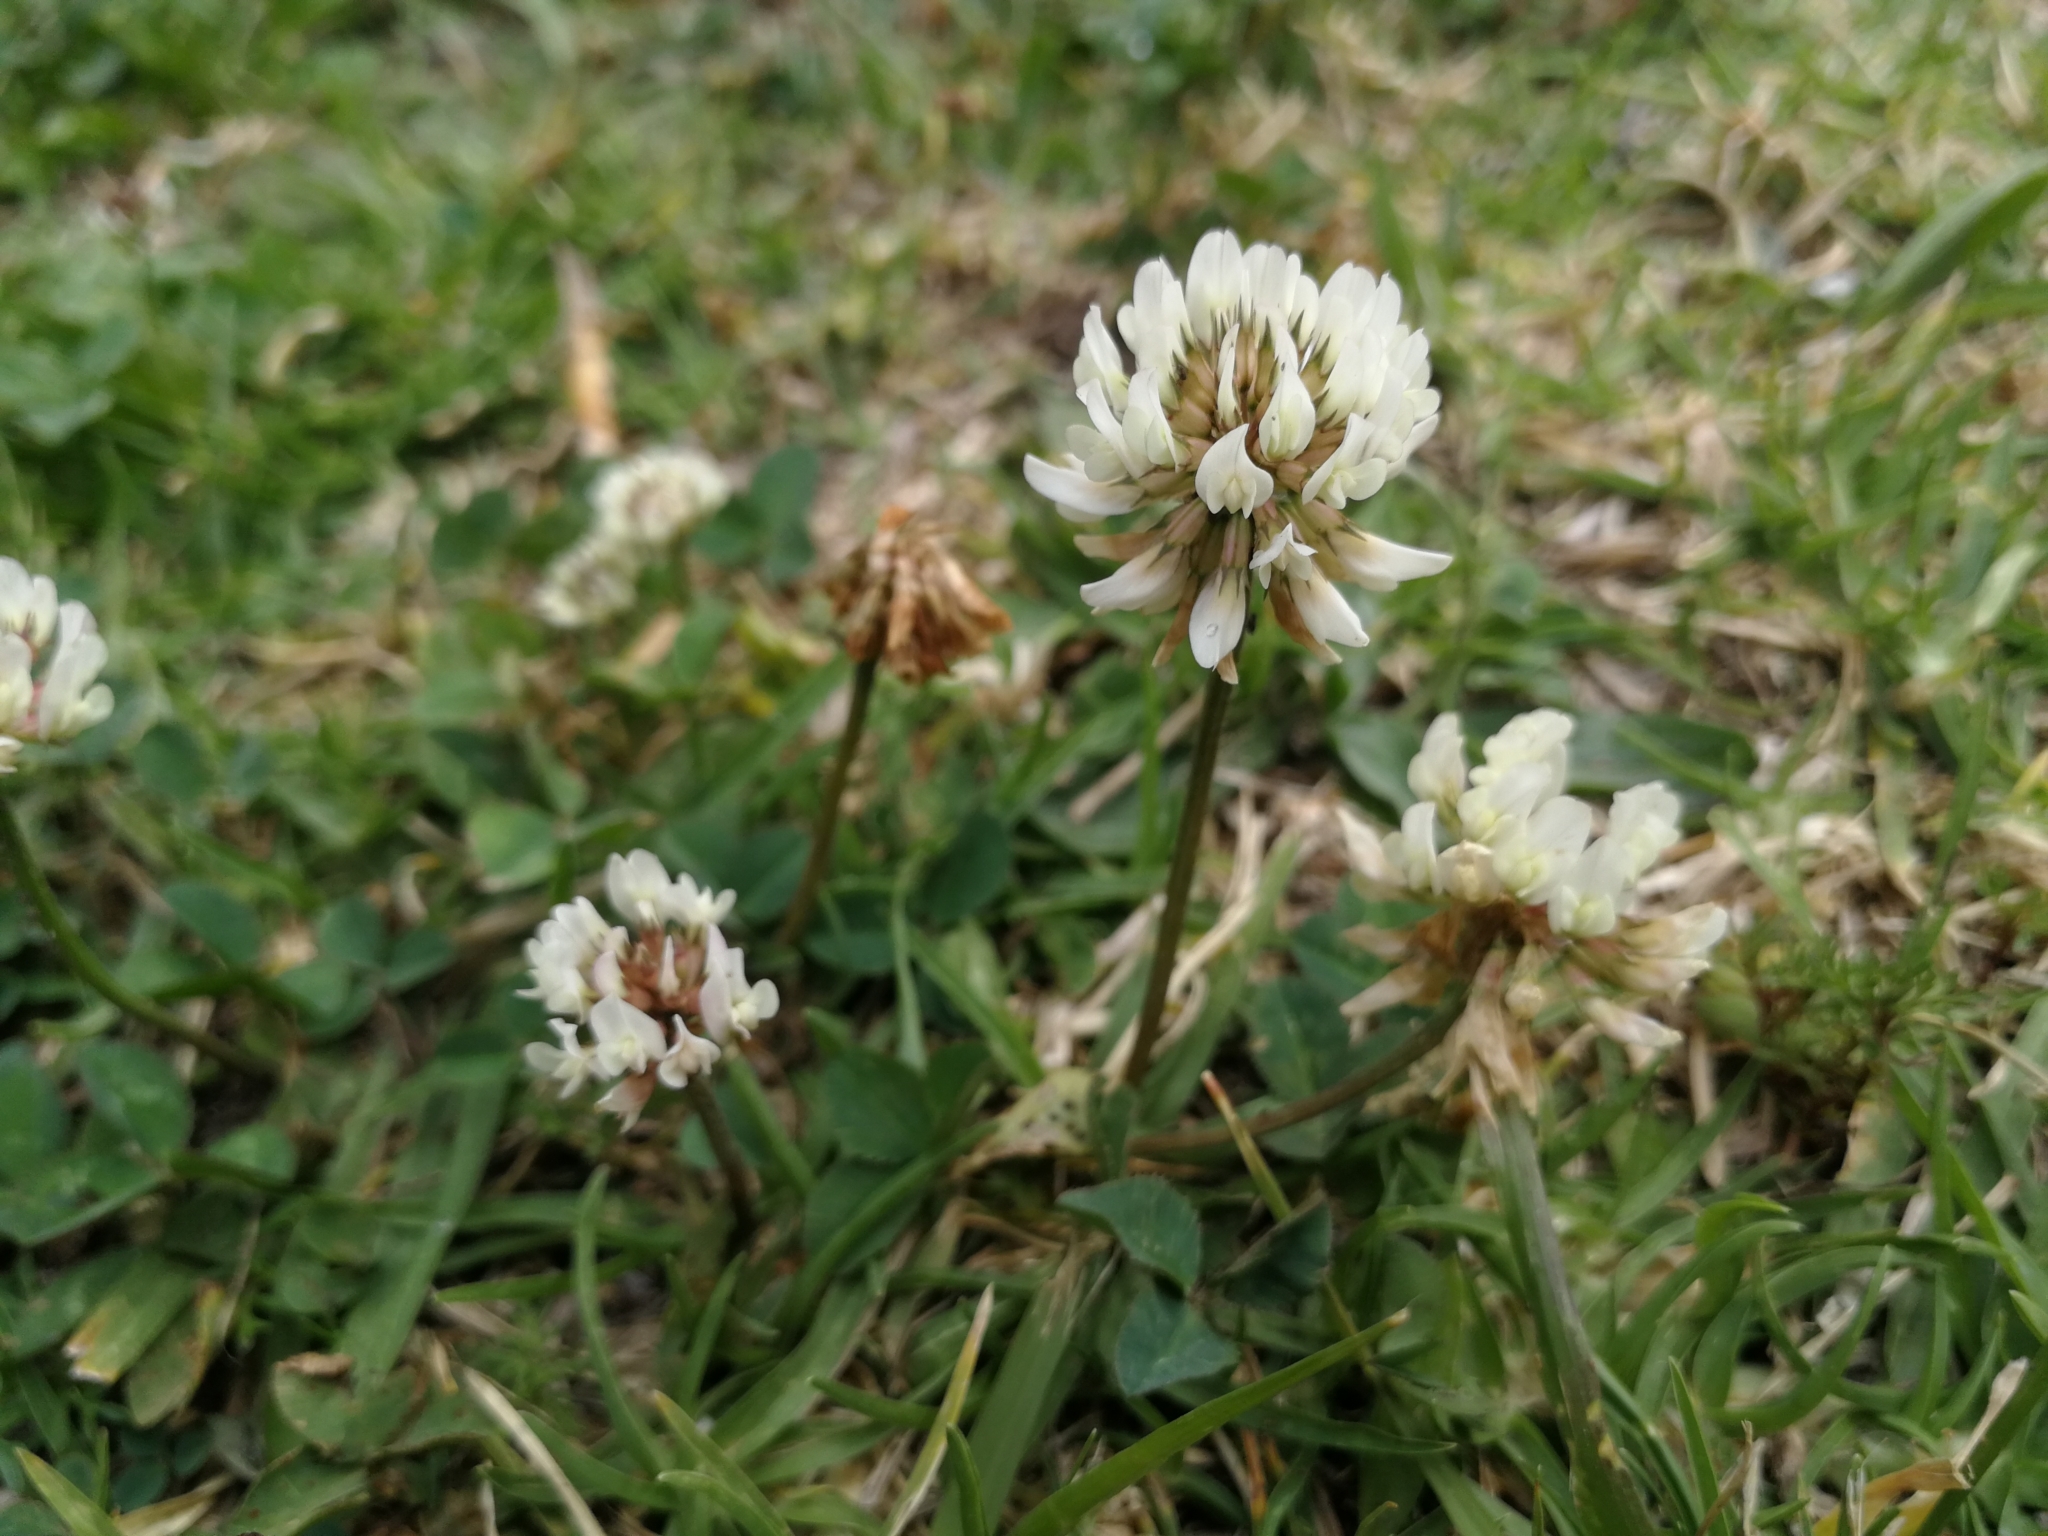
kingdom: Plantae
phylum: Tracheophyta
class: Magnoliopsida
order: Fabales
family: Fabaceae
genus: Trifolium
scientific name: Trifolium repens
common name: White clover
